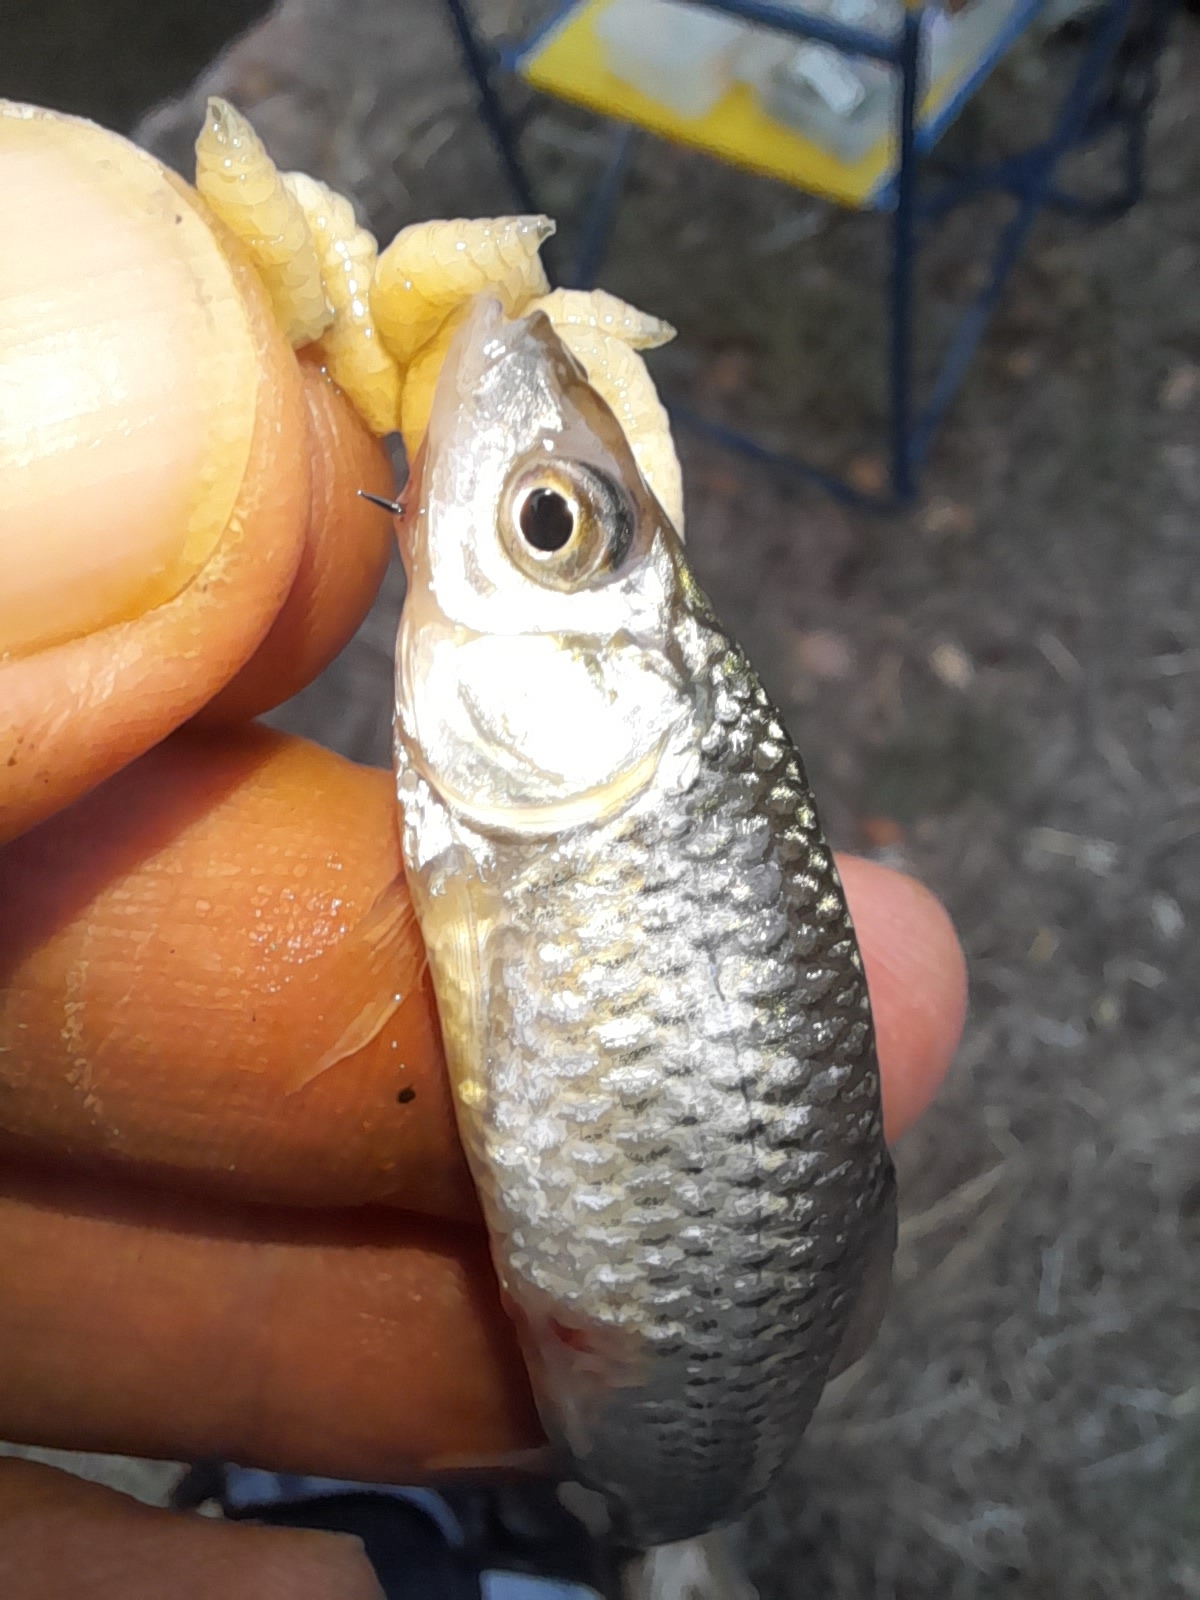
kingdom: Animalia
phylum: Chordata
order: Cypriniformes
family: Cyprinidae
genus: Pseudorasbora
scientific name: Pseudorasbora parva
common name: Topmouth gudgeon
